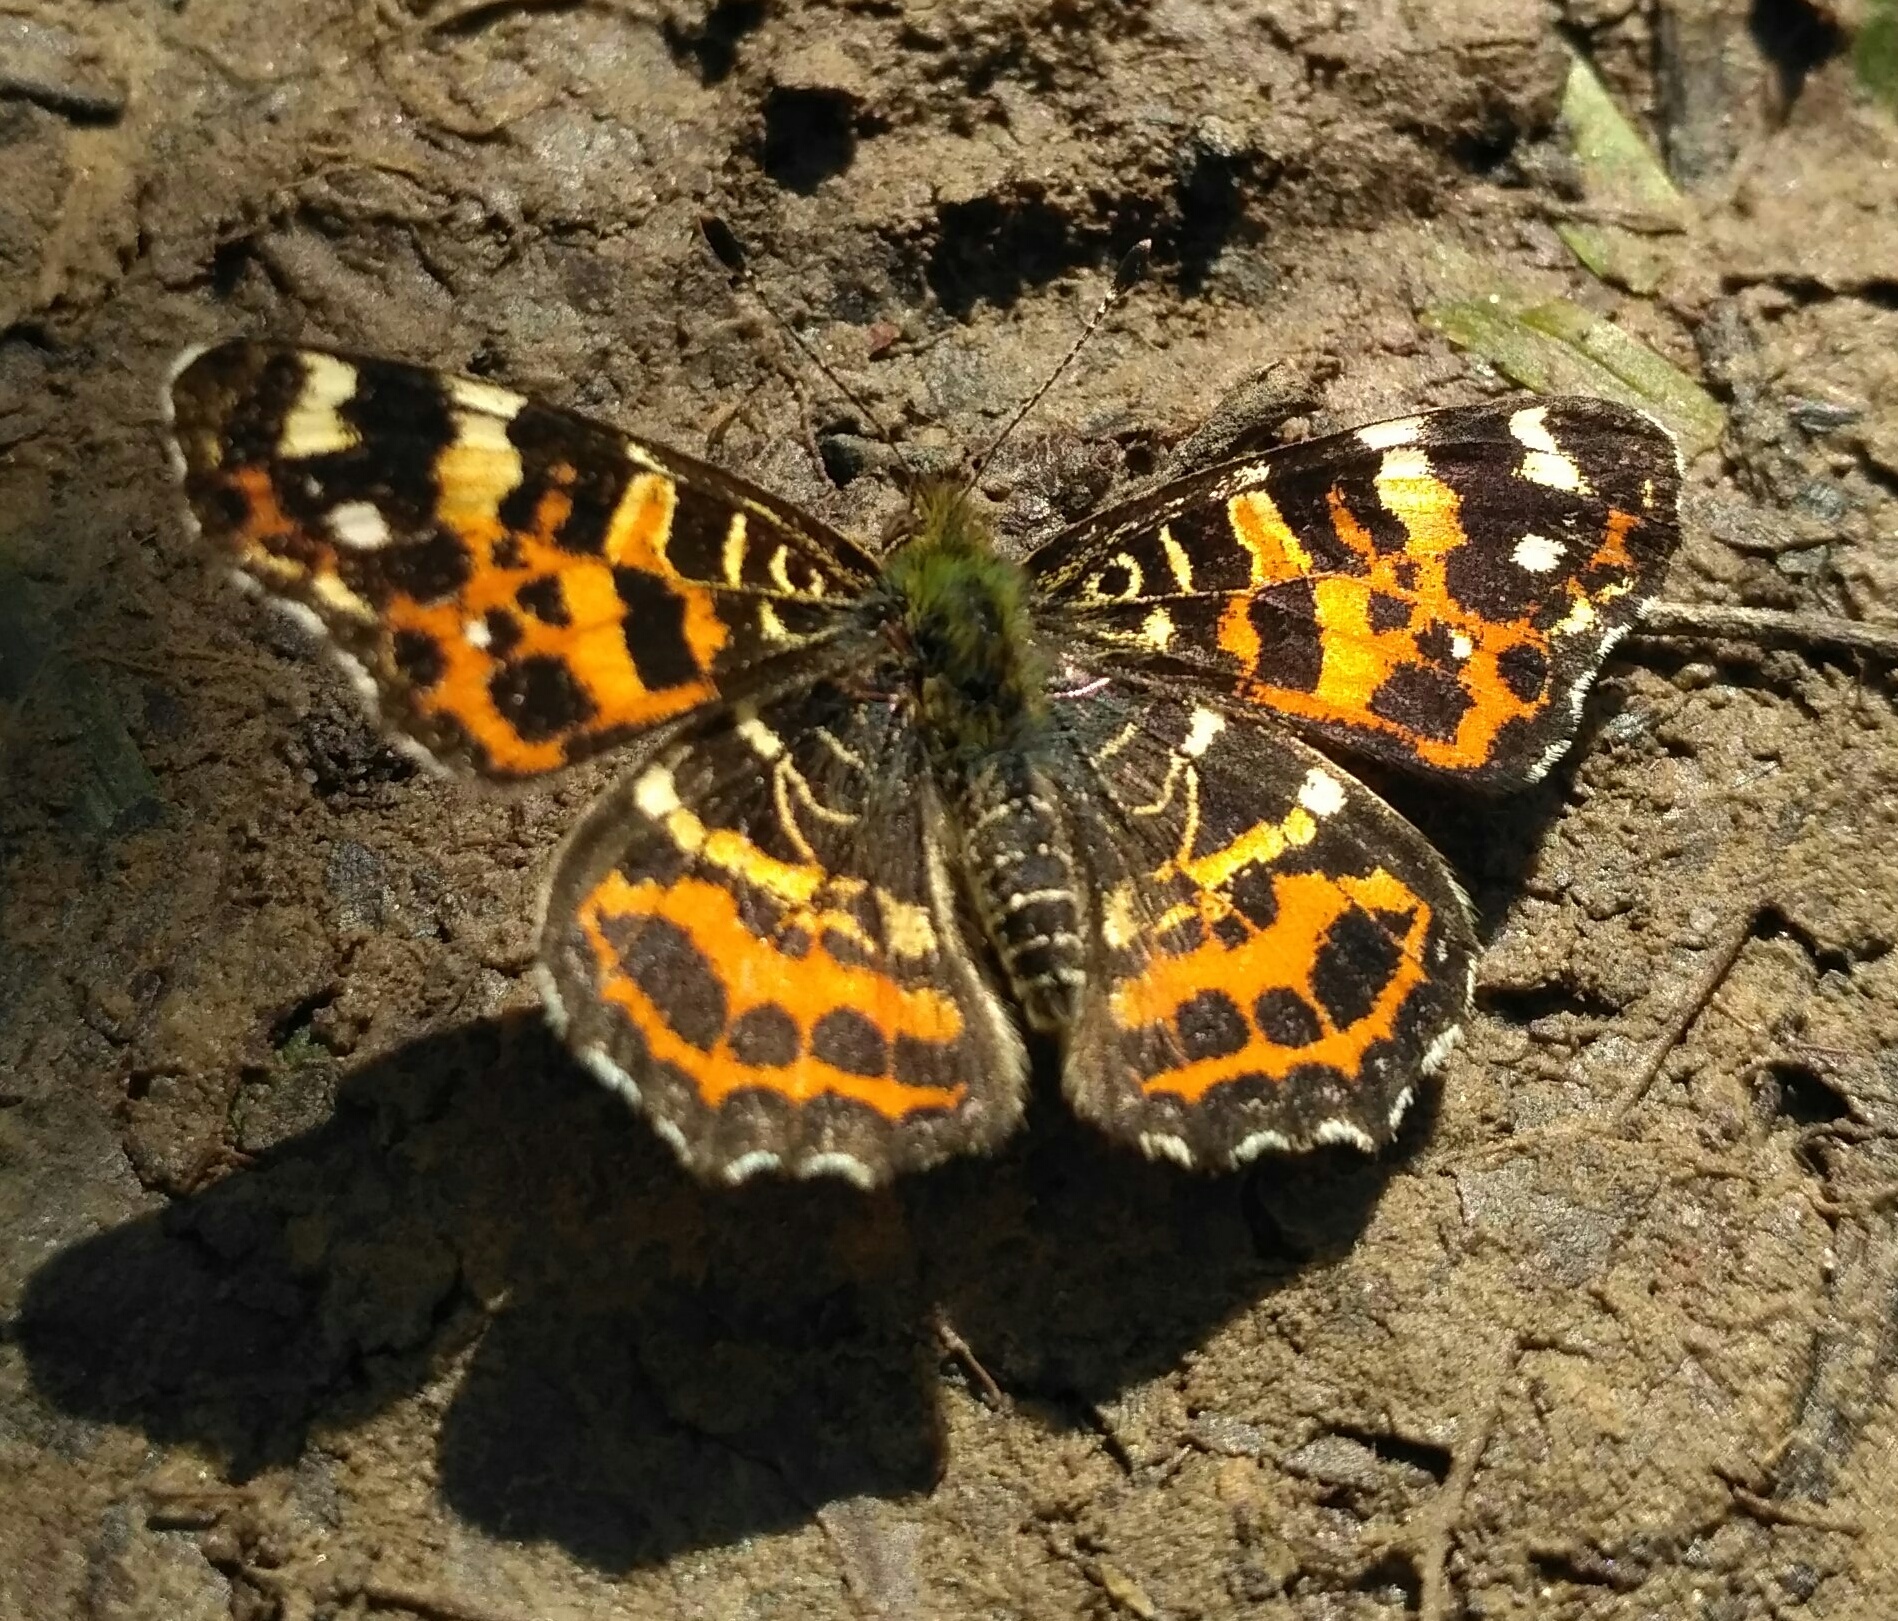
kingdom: Animalia
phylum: Arthropoda
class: Insecta
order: Lepidoptera
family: Nymphalidae
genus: Araschnia
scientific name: Araschnia levana
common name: Map butterfly
